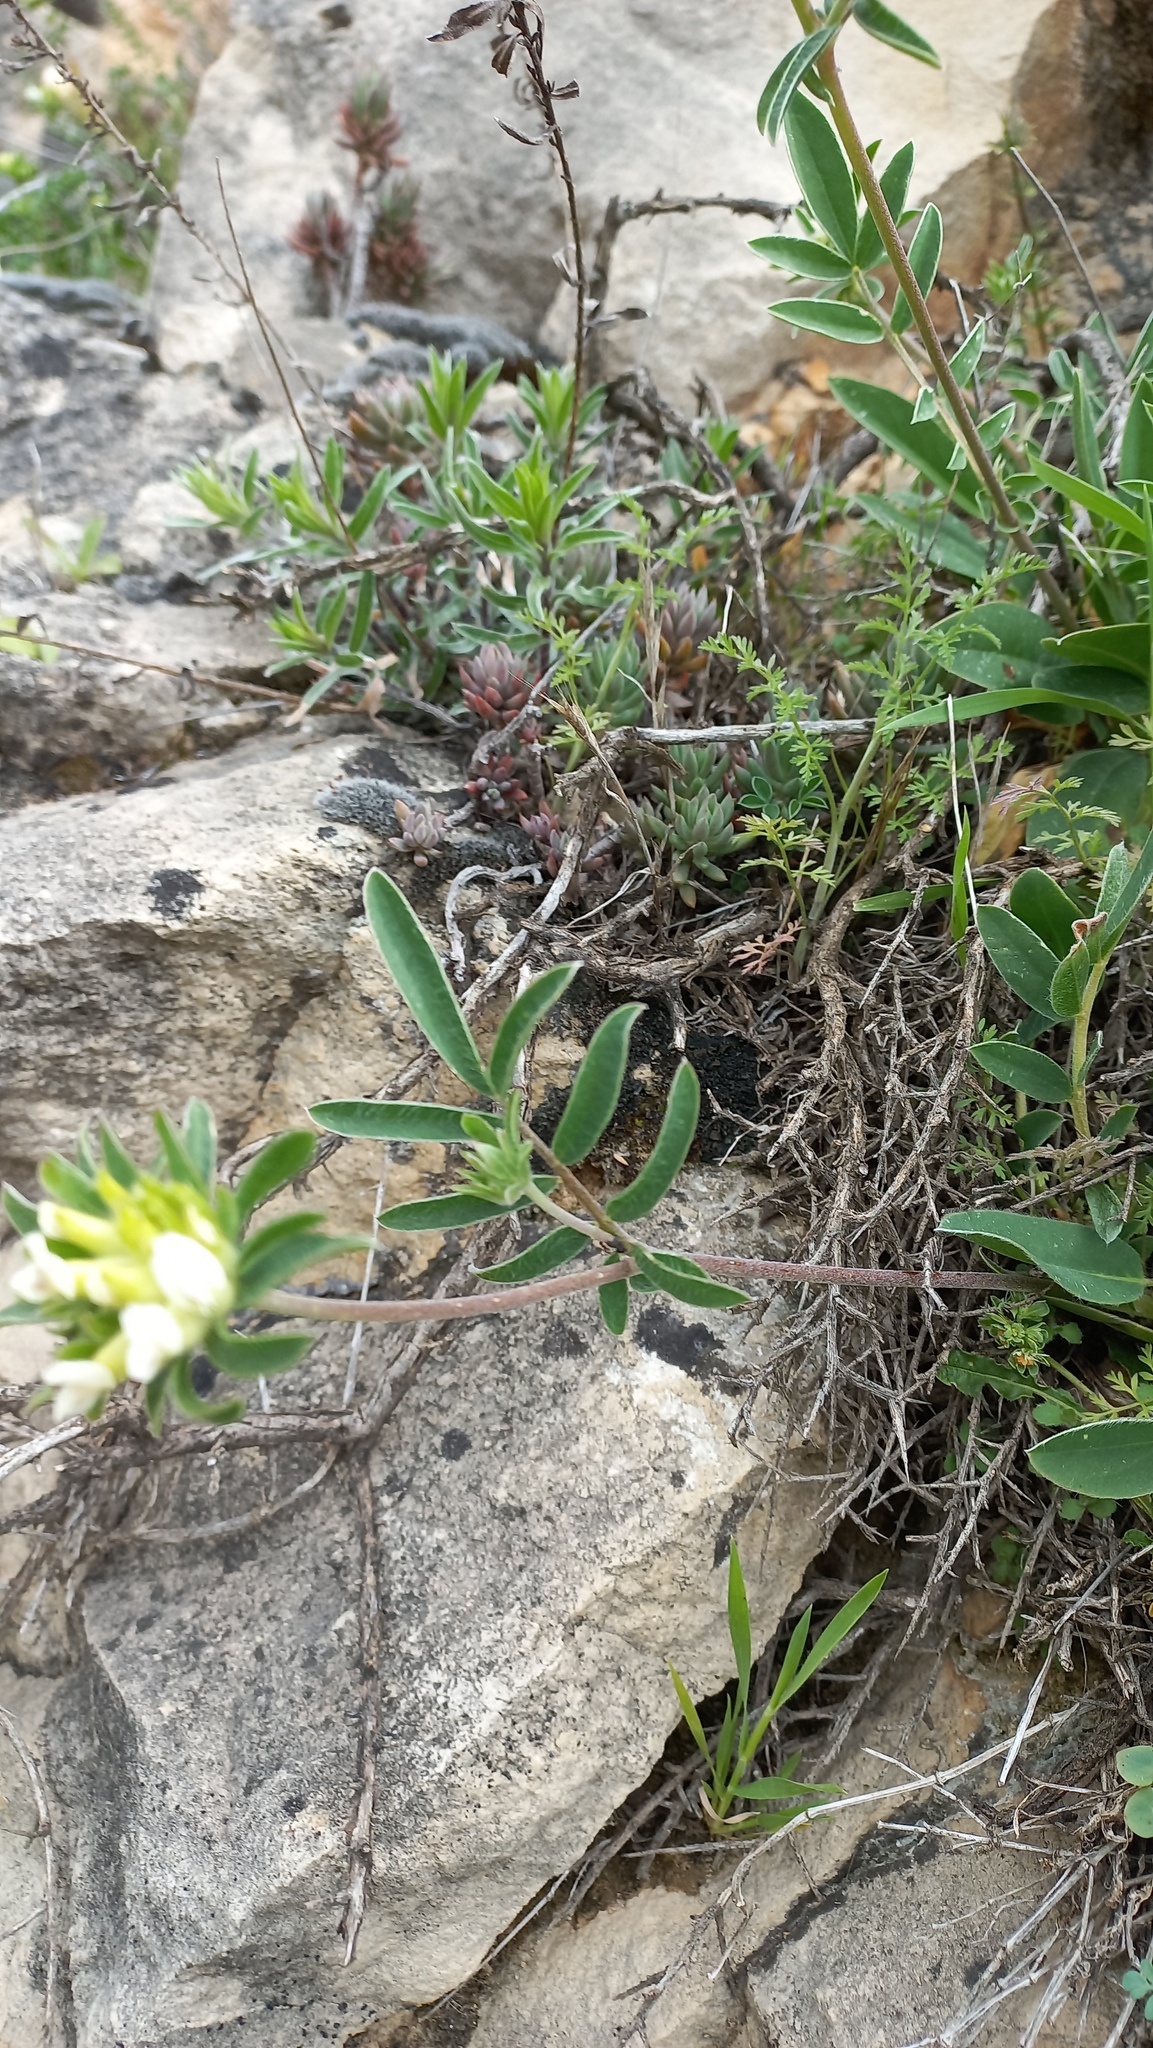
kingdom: Plantae
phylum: Tracheophyta
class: Magnoliopsida
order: Fabales
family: Fabaceae
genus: Anthyllis
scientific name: Anthyllis vulneraria
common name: Kidney vetch
